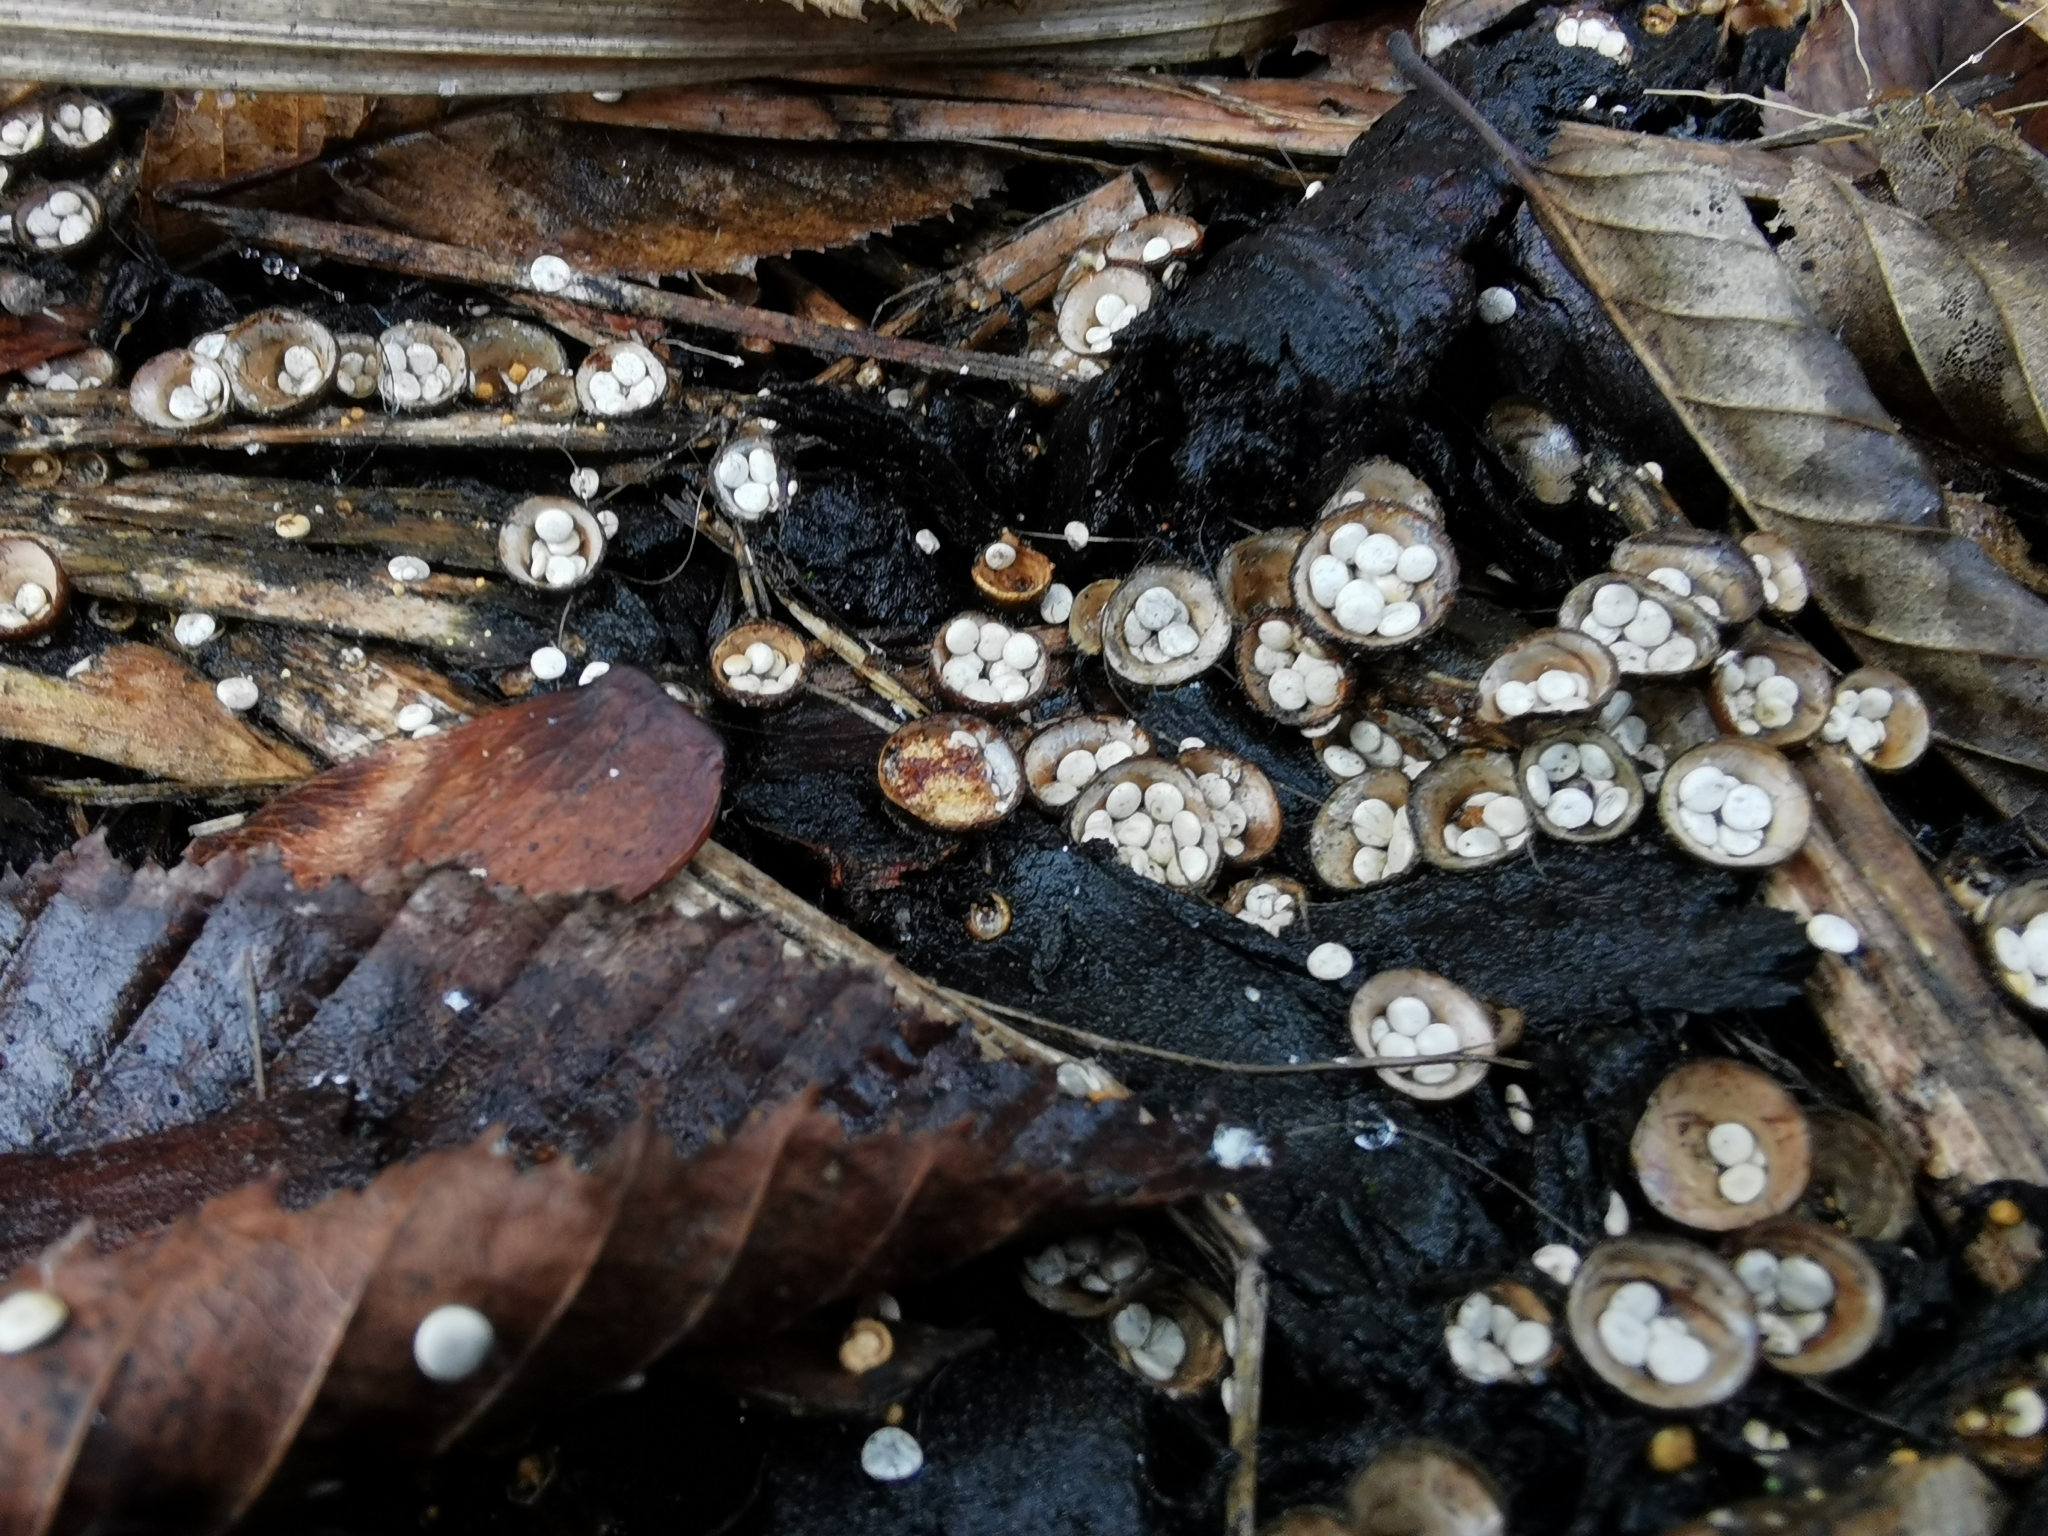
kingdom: Fungi
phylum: Basidiomycota
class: Agaricomycetes
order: Agaricales
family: Nidulariaceae
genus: Crucibulum
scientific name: Crucibulum laeve
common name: Common bird's nest
